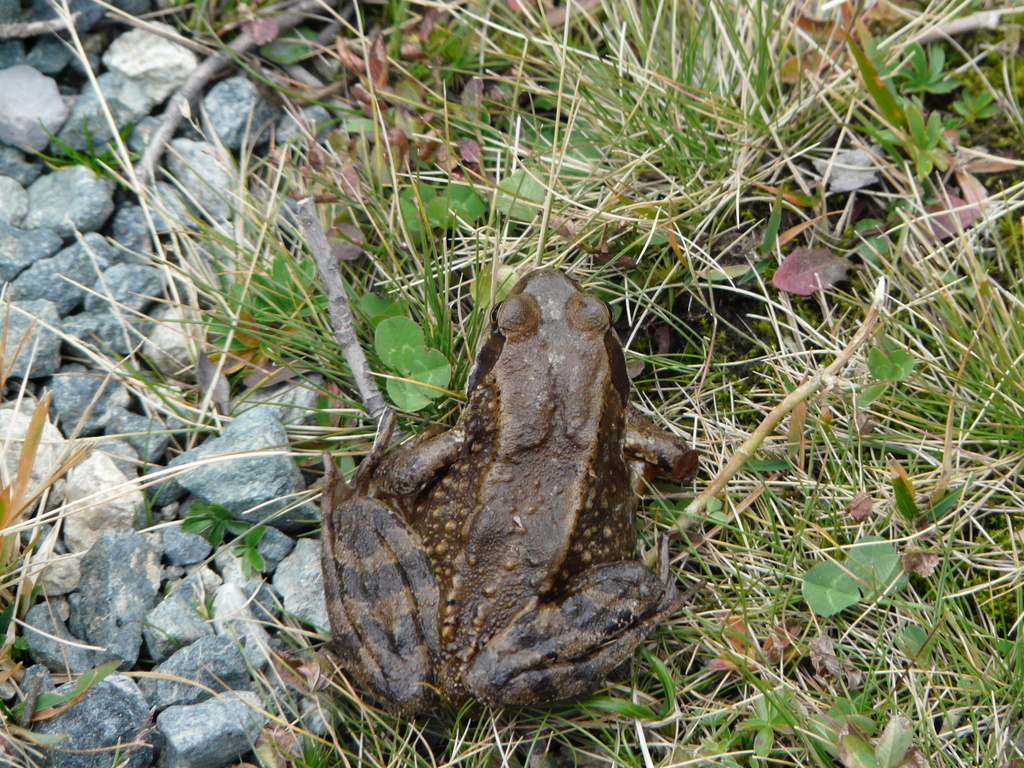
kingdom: Animalia
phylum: Chordata
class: Amphibia
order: Anura
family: Ranidae
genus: Rana
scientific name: Rana temporaria
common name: Common frog
